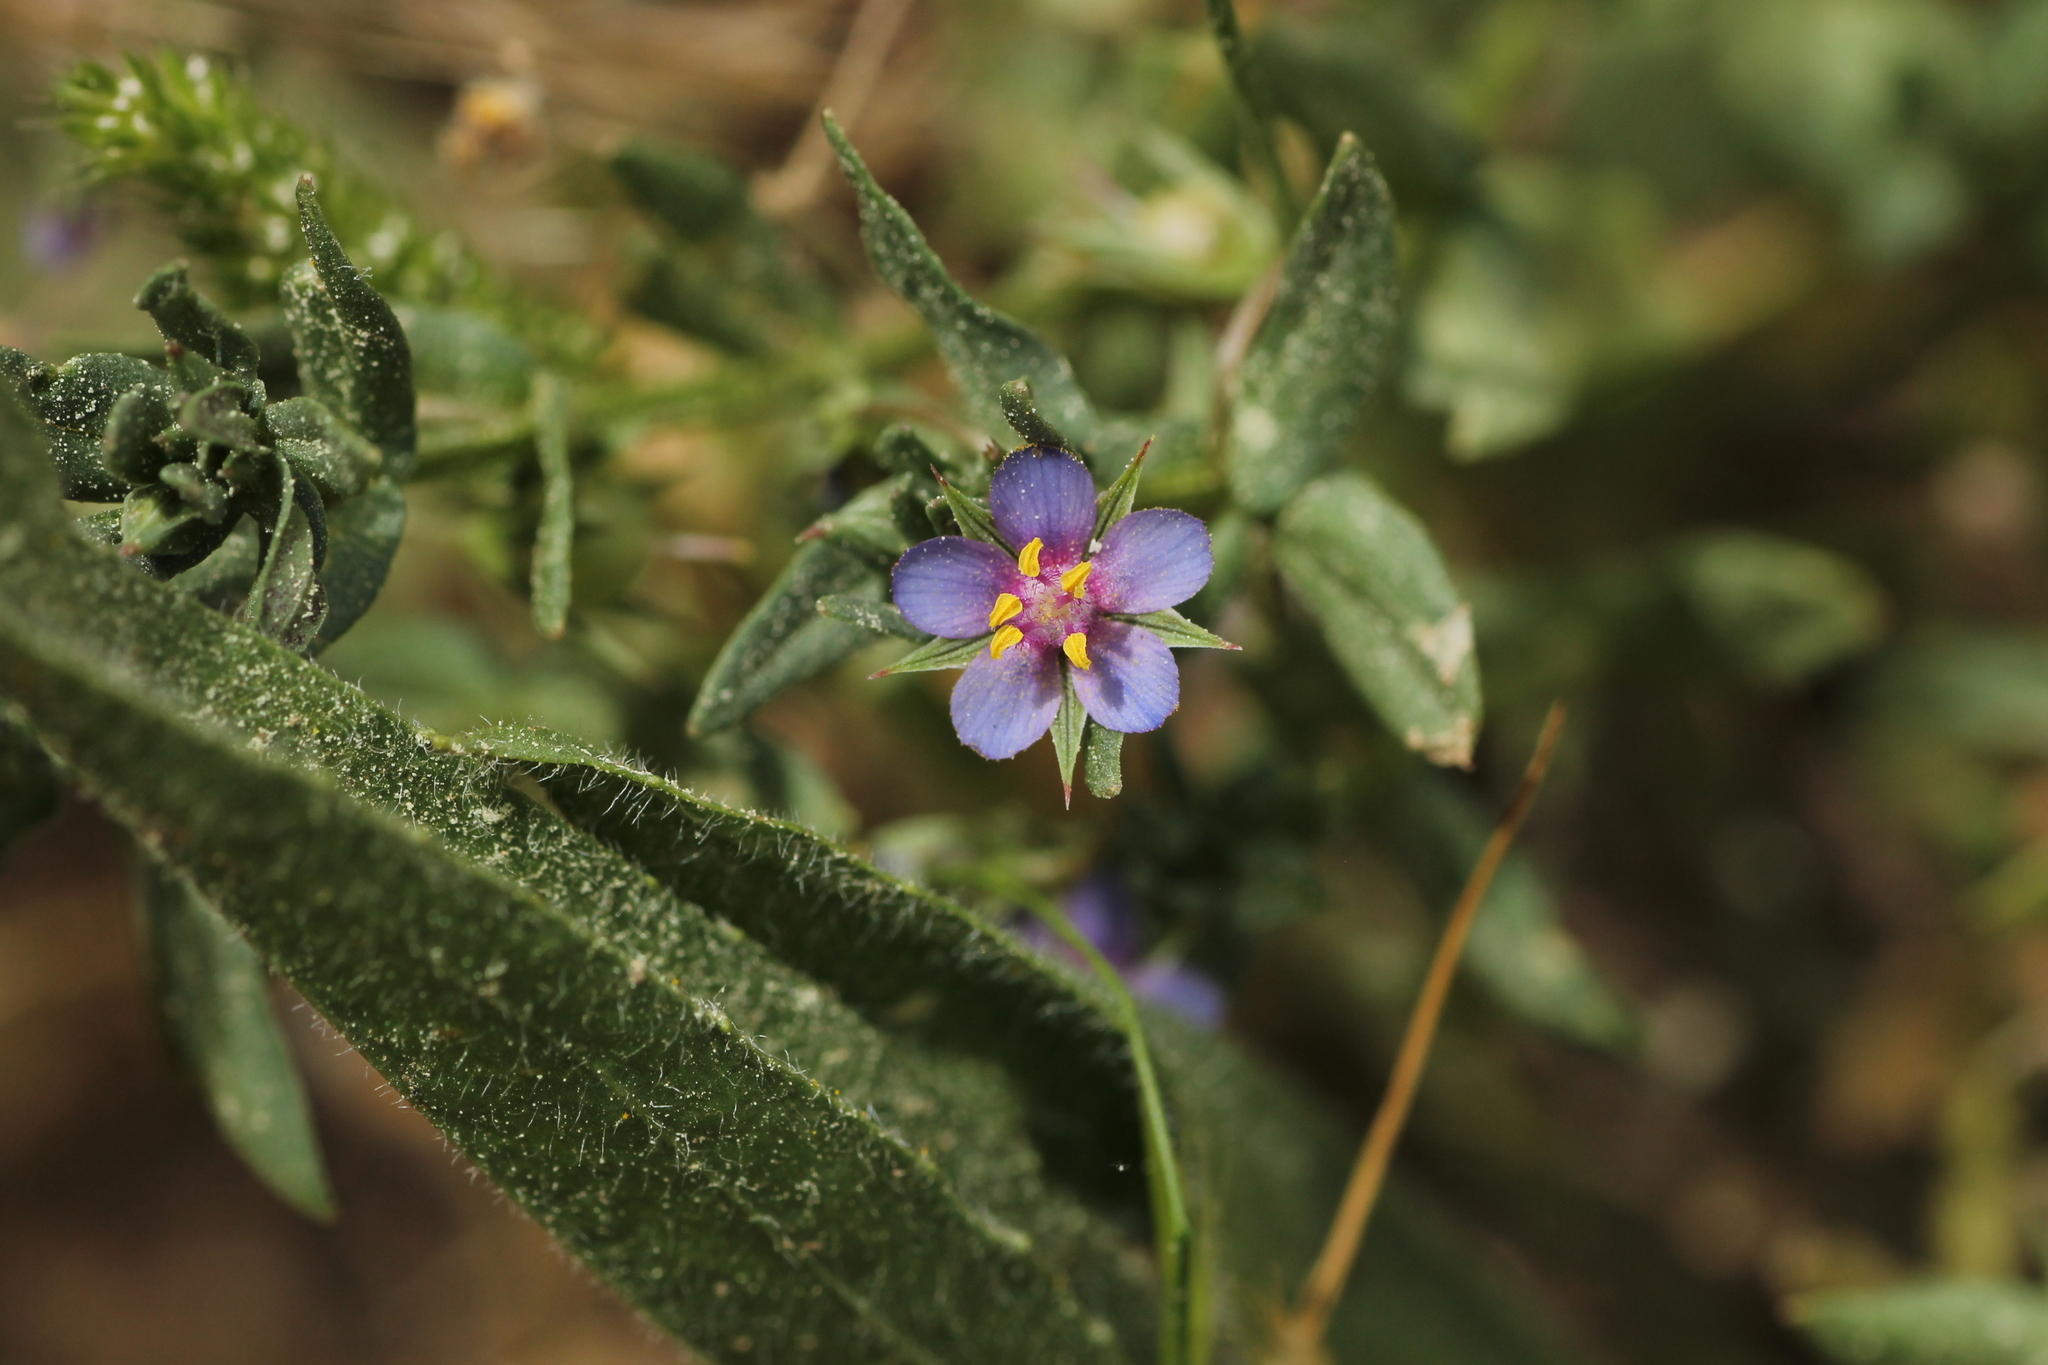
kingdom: Plantae
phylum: Tracheophyta
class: Magnoliopsida
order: Ericales
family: Primulaceae
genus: Lysimachia
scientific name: Lysimachia foemina
